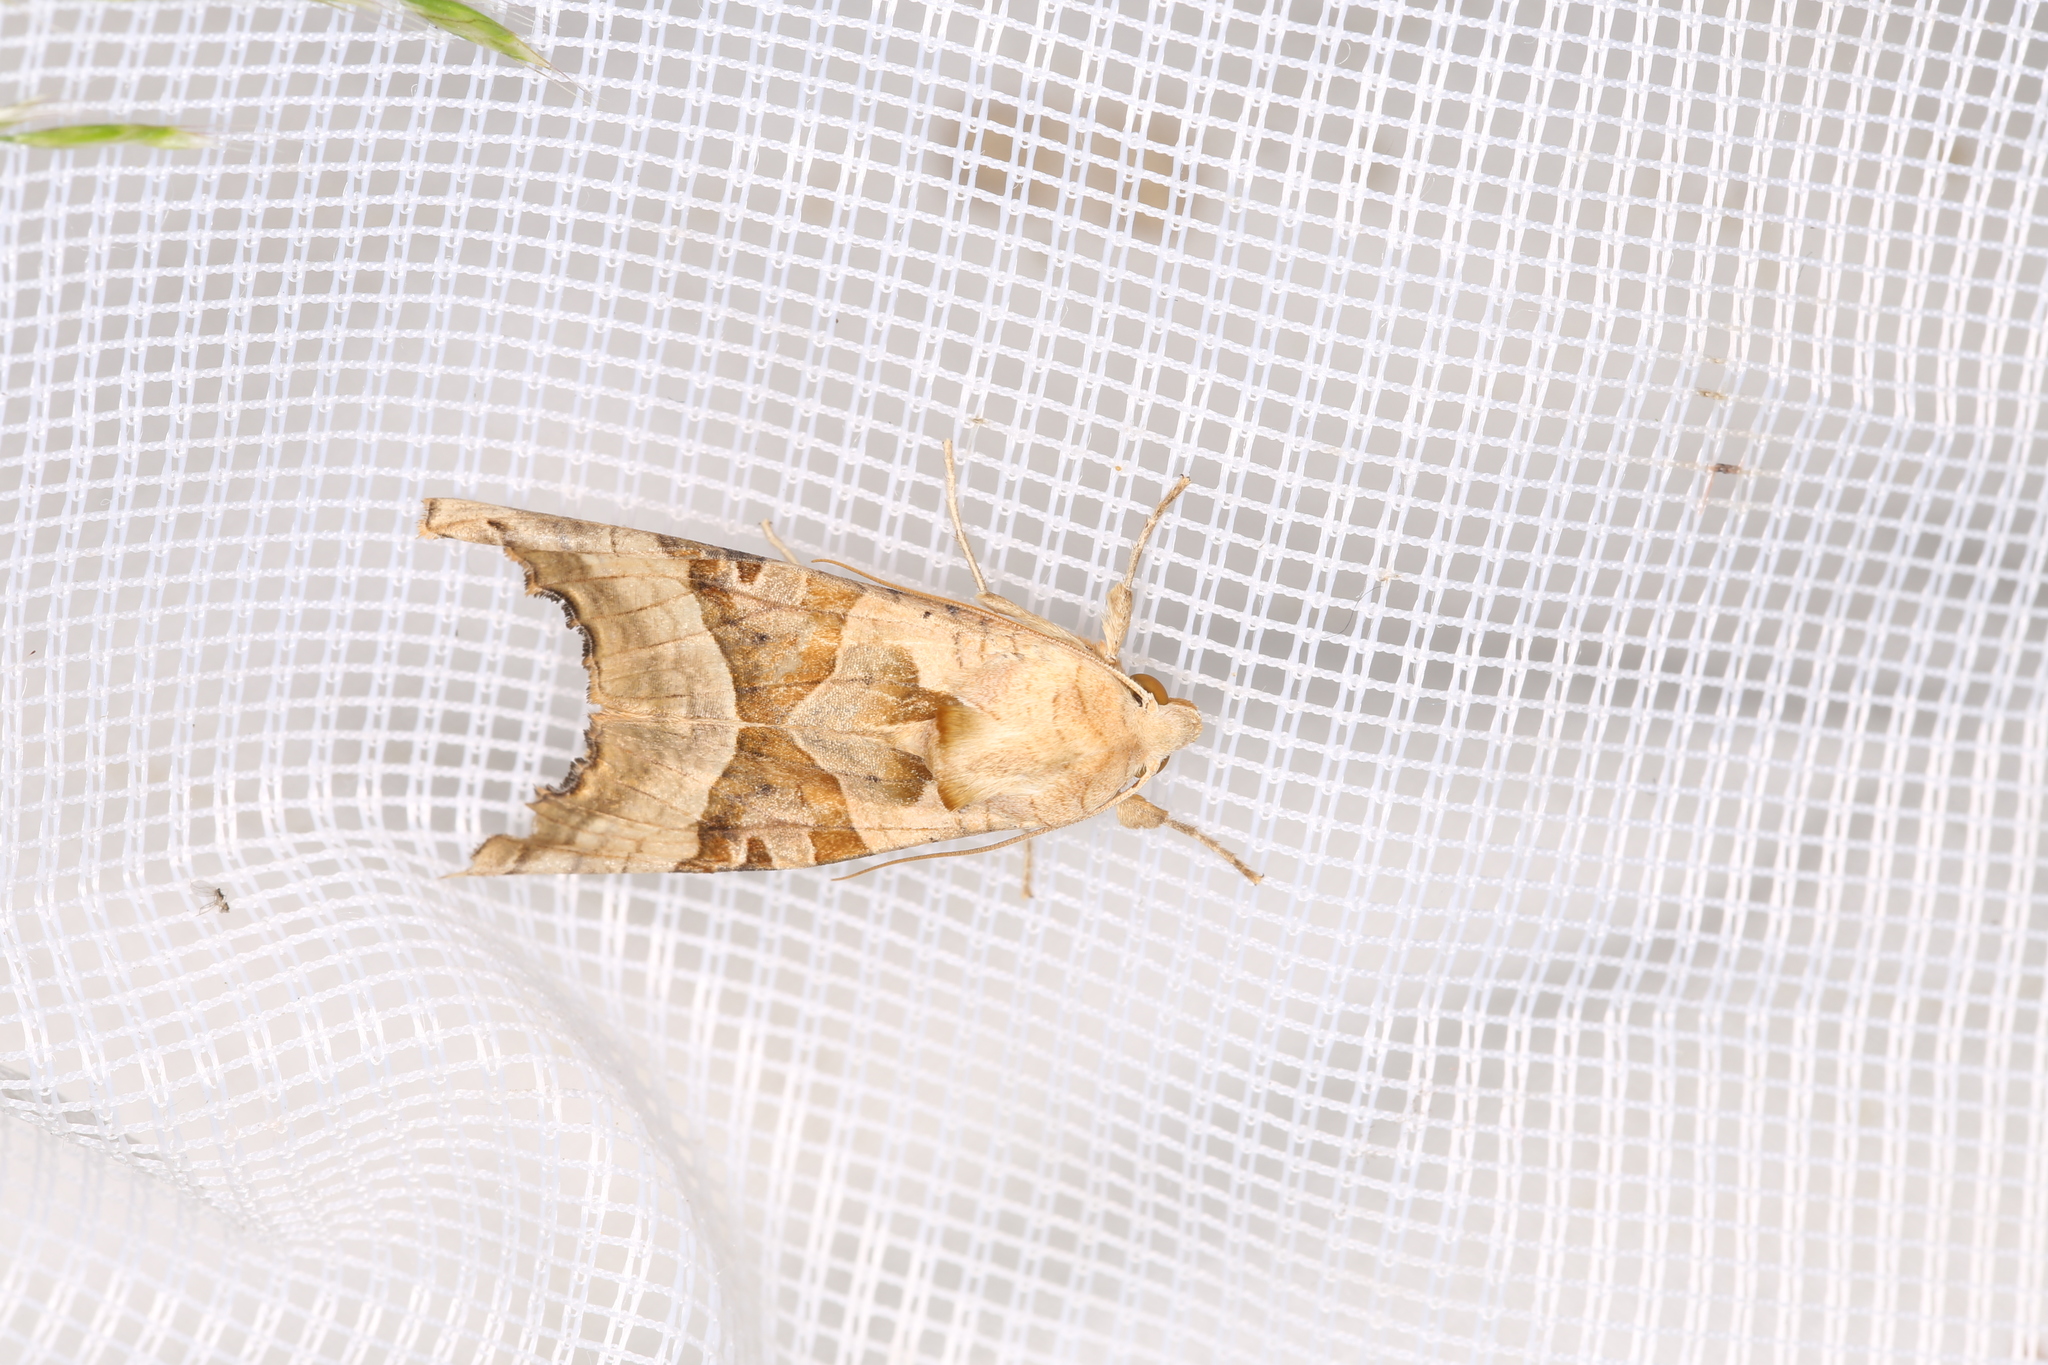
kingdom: Animalia
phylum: Arthropoda
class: Insecta
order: Lepidoptera
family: Noctuidae
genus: Phlogophora
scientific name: Phlogophora meticulosa
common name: Angle shades
